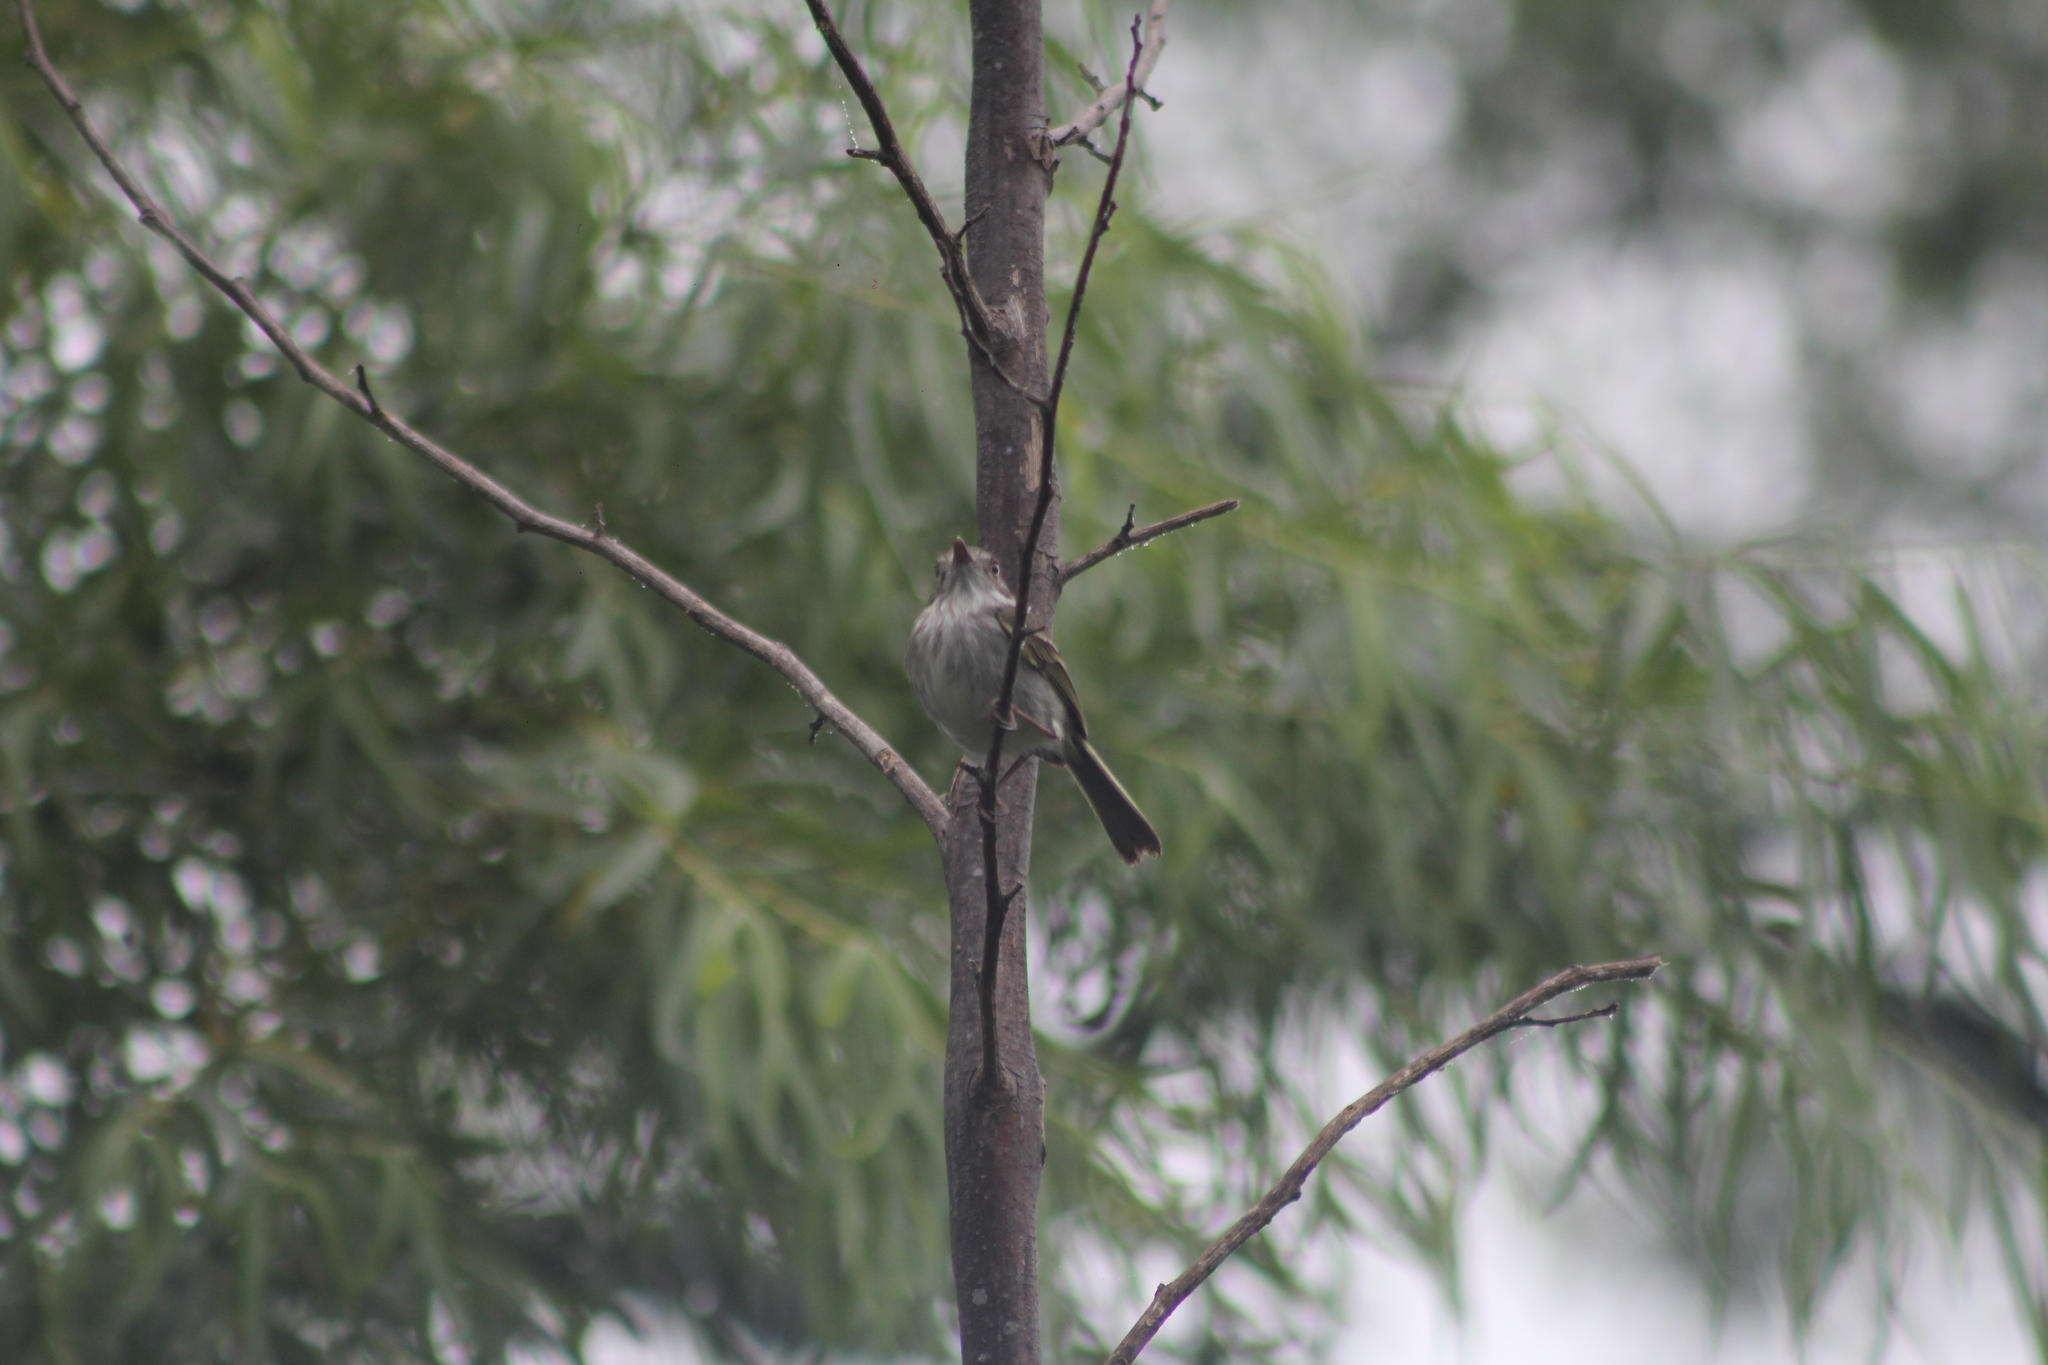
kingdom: Animalia
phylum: Chordata
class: Aves
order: Passeriformes
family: Tyrannidae
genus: Hemitriccus
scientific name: Hemitriccus margaritaceiventer
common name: Pearly-vented tody-tyrant
